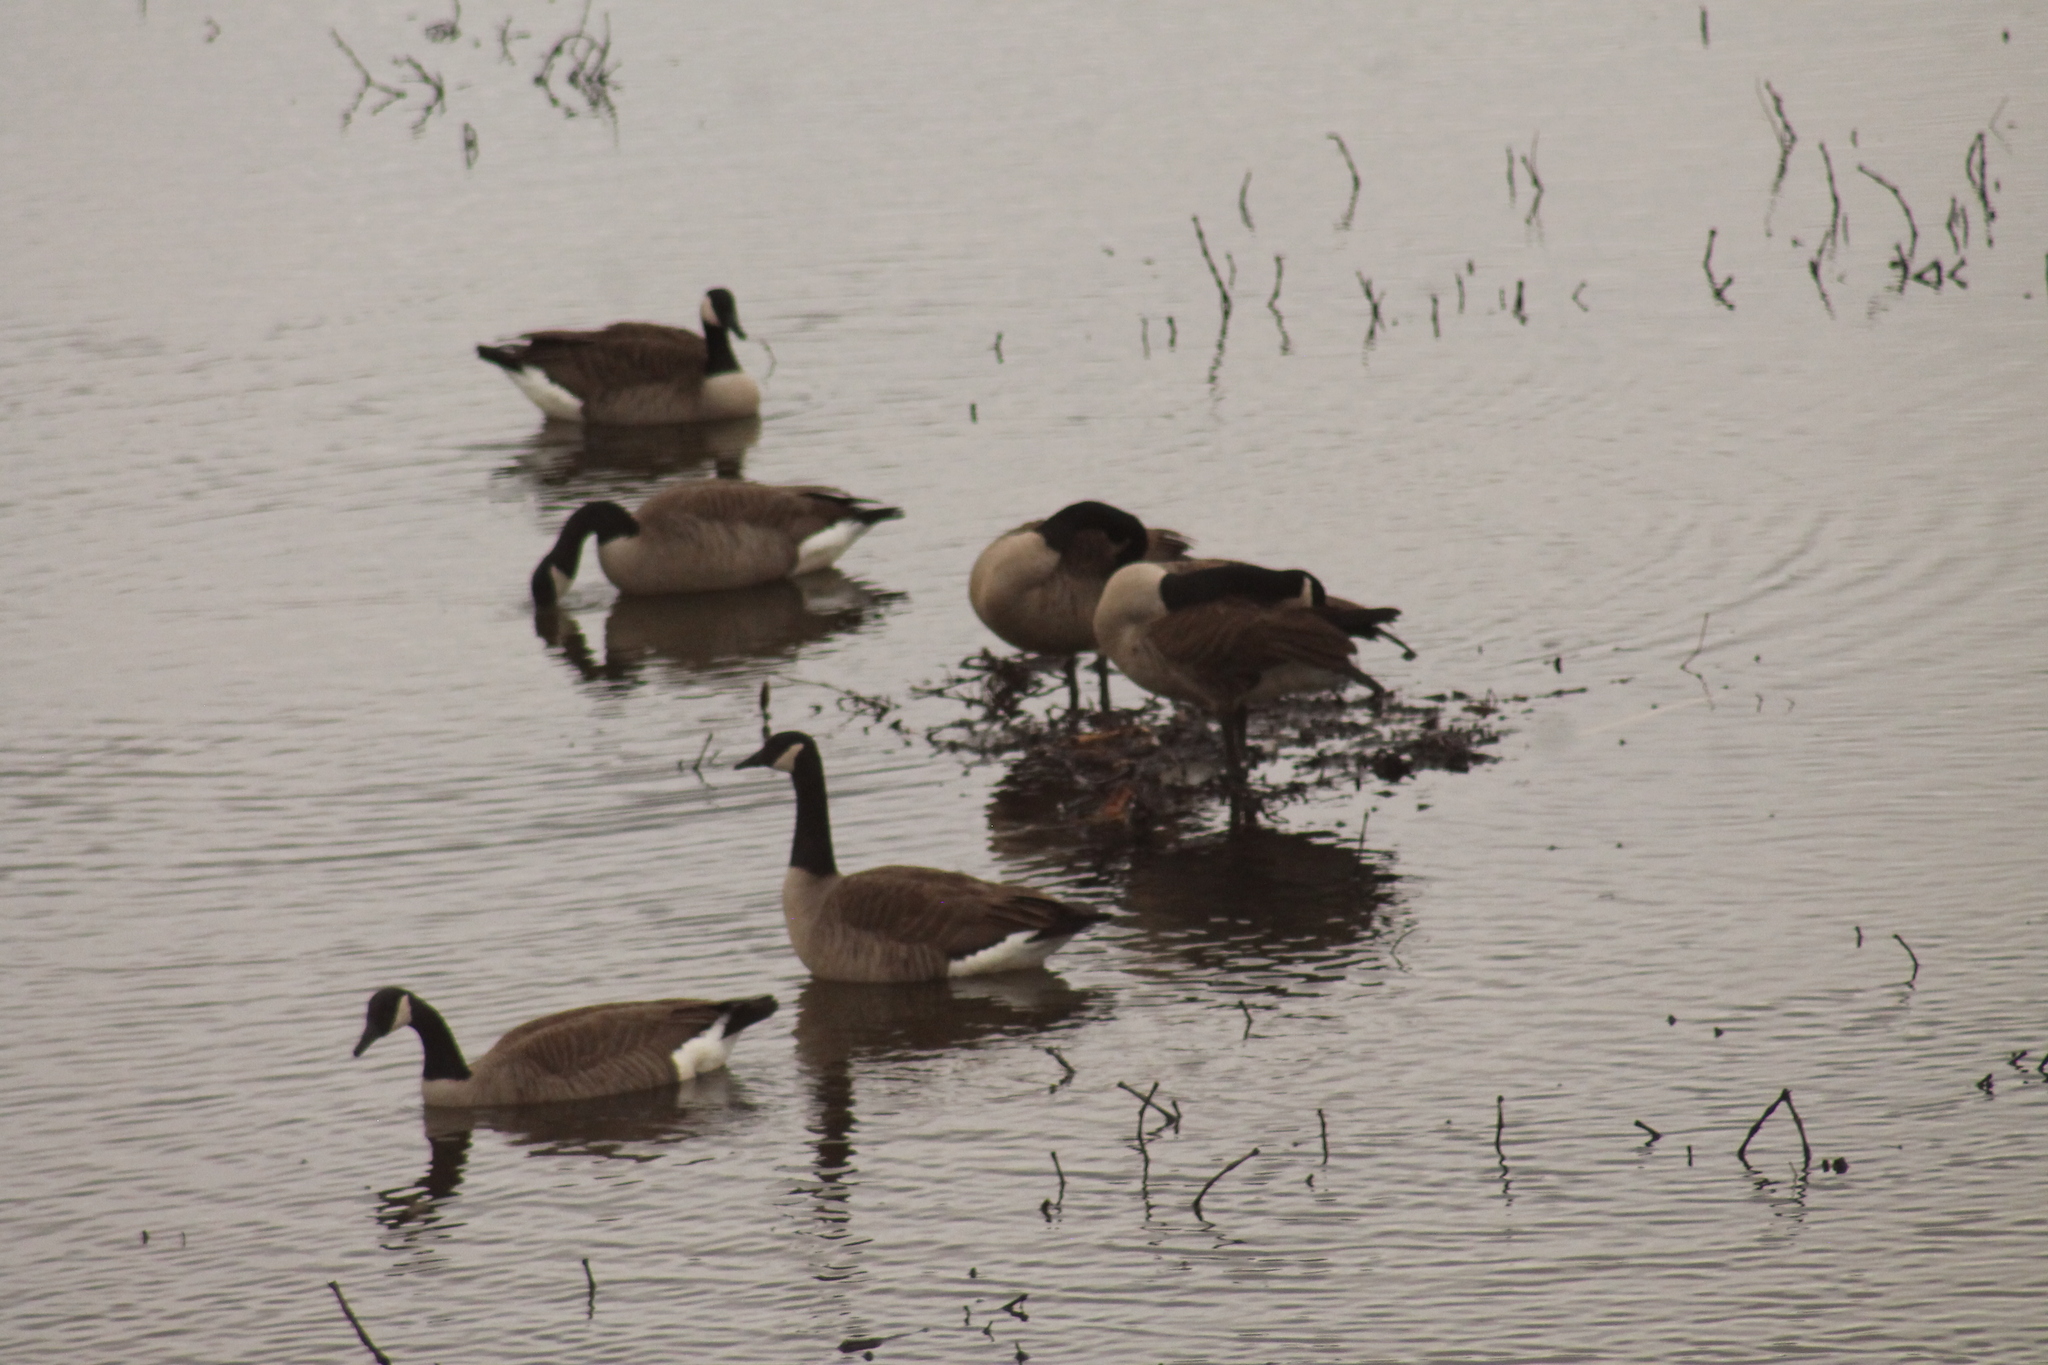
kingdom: Animalia
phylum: Chordata
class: Aves
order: Anseriformes
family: Anatidae
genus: Branta
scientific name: Branta canadensis
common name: Canada goose
